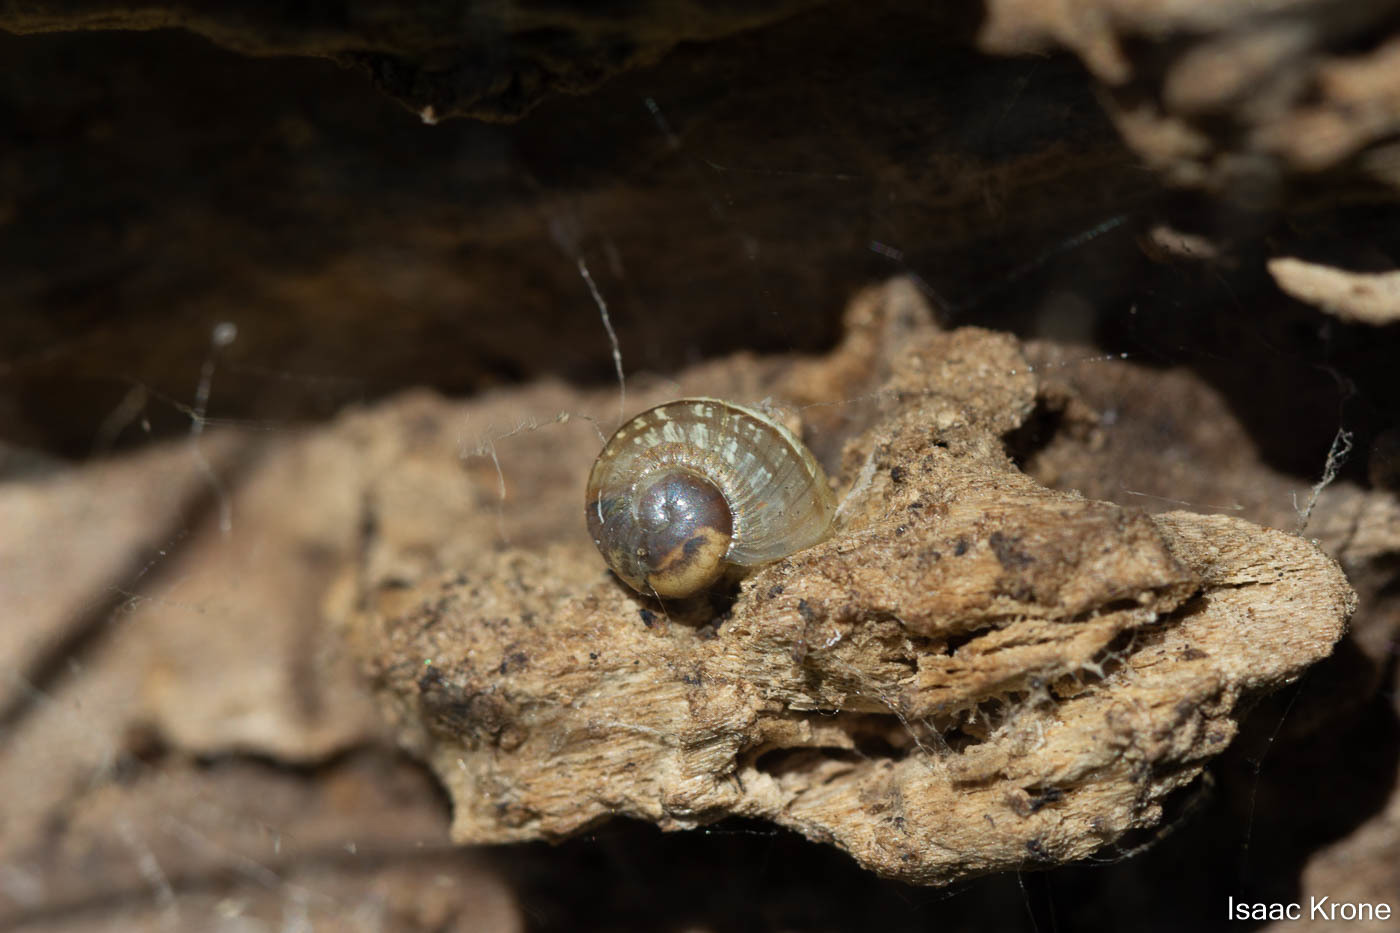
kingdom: Animalia
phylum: Mollusca
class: Gastropoda
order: Stylommatophora
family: Helicidae
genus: Cornu
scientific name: Cornu aspersum
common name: Brown garden snail
